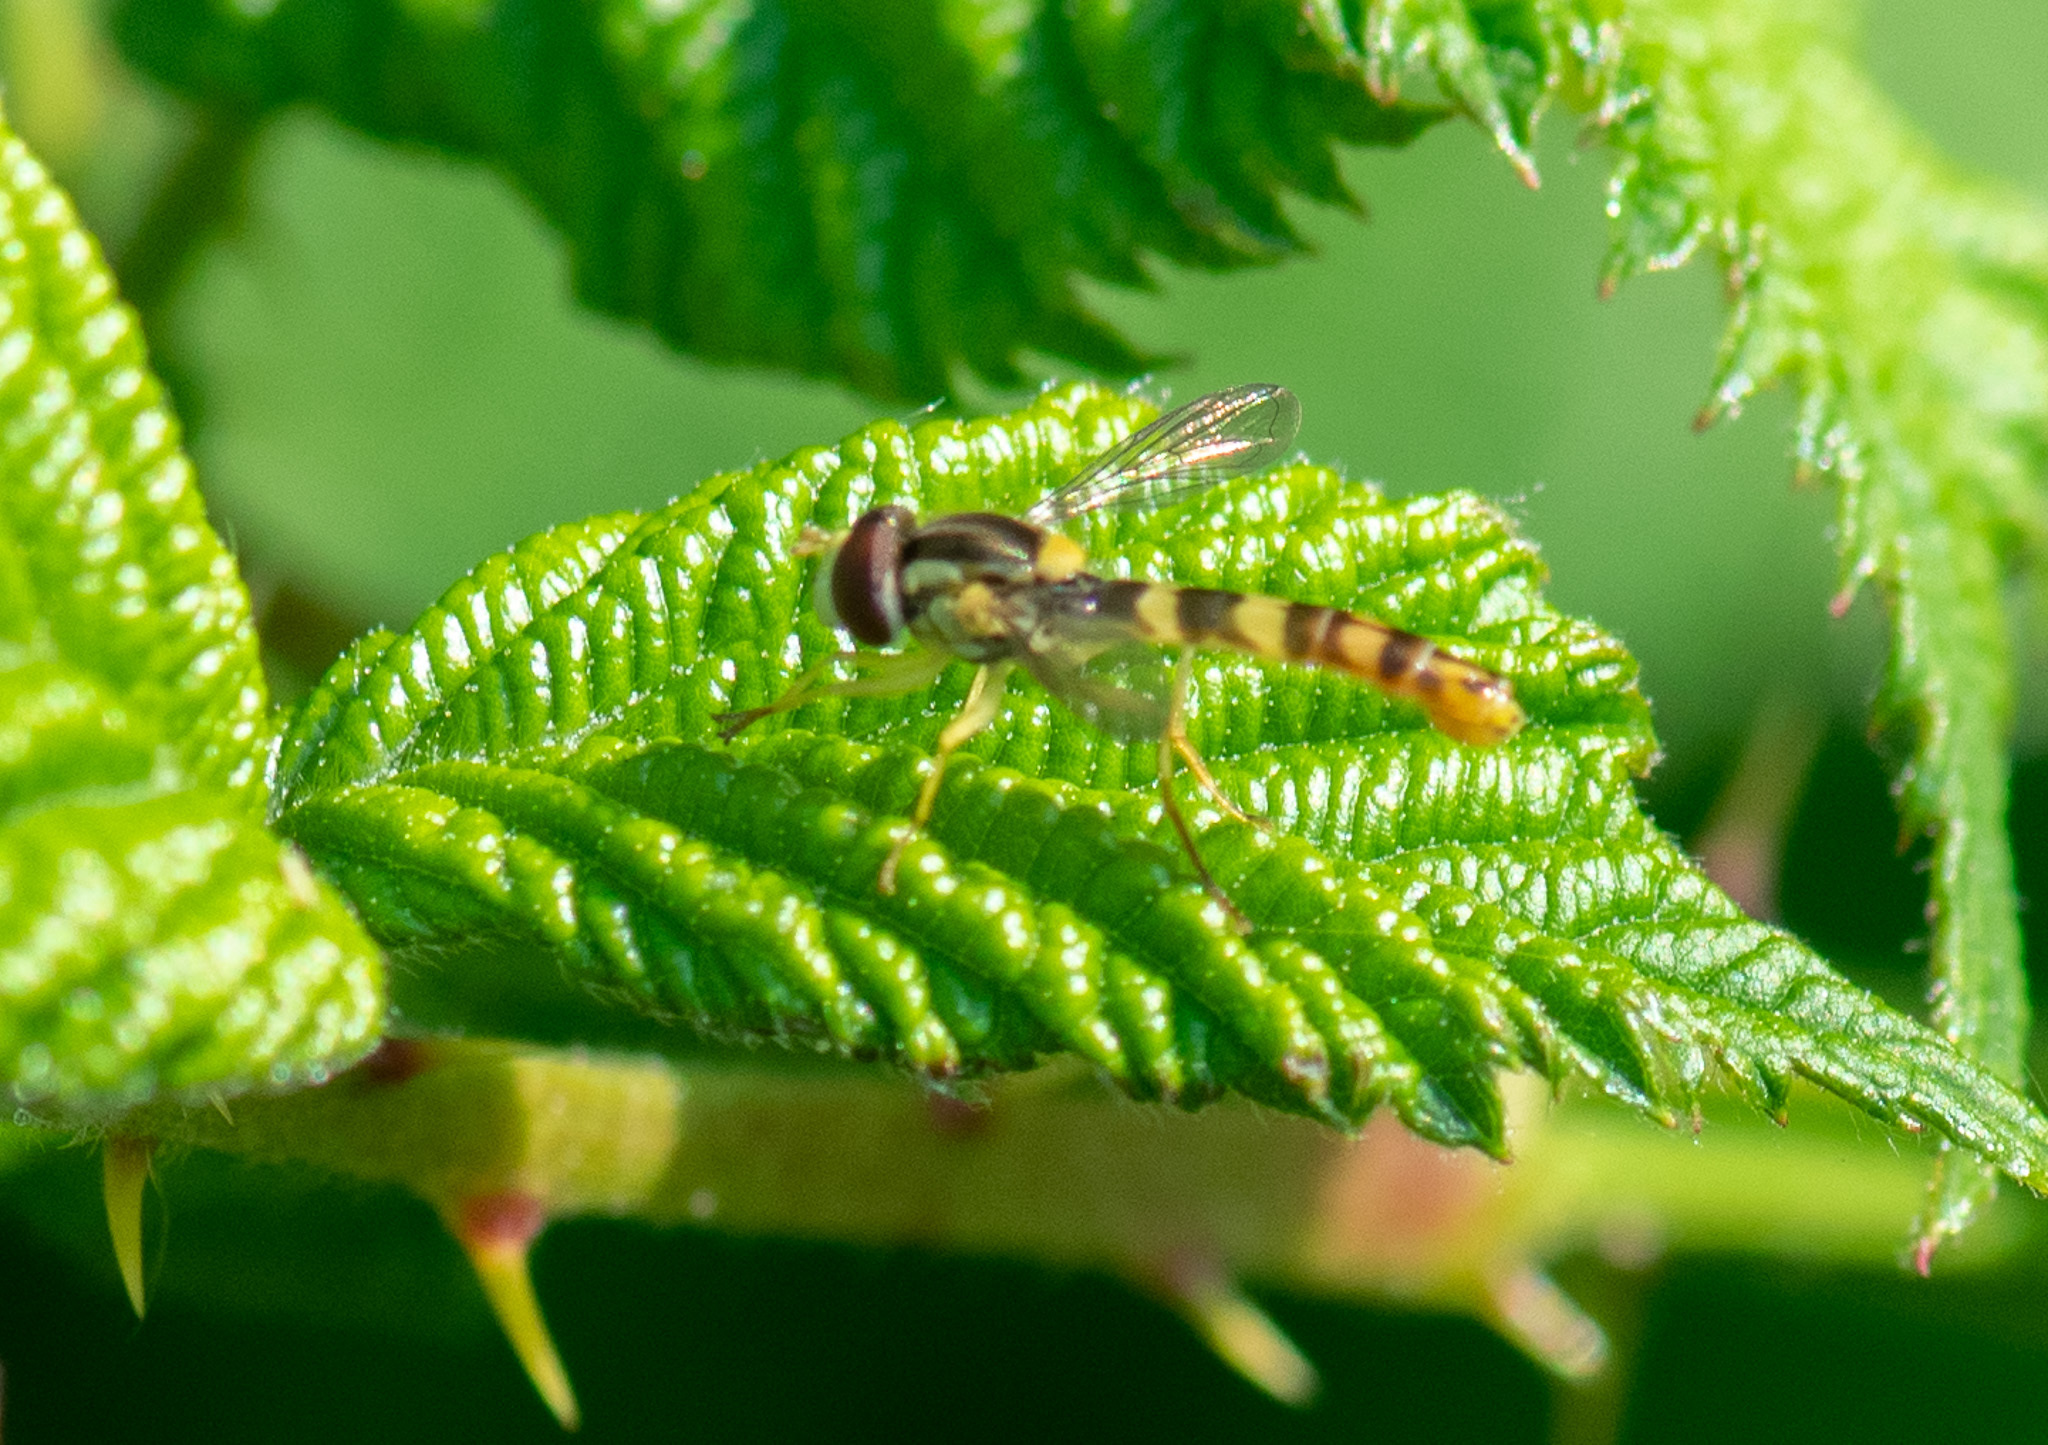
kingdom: Animalia
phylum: Arthropoda
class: Insecta
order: Diptera
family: Syrphidae
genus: Sphaerophoria
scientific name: Sphaerophoria scripta
